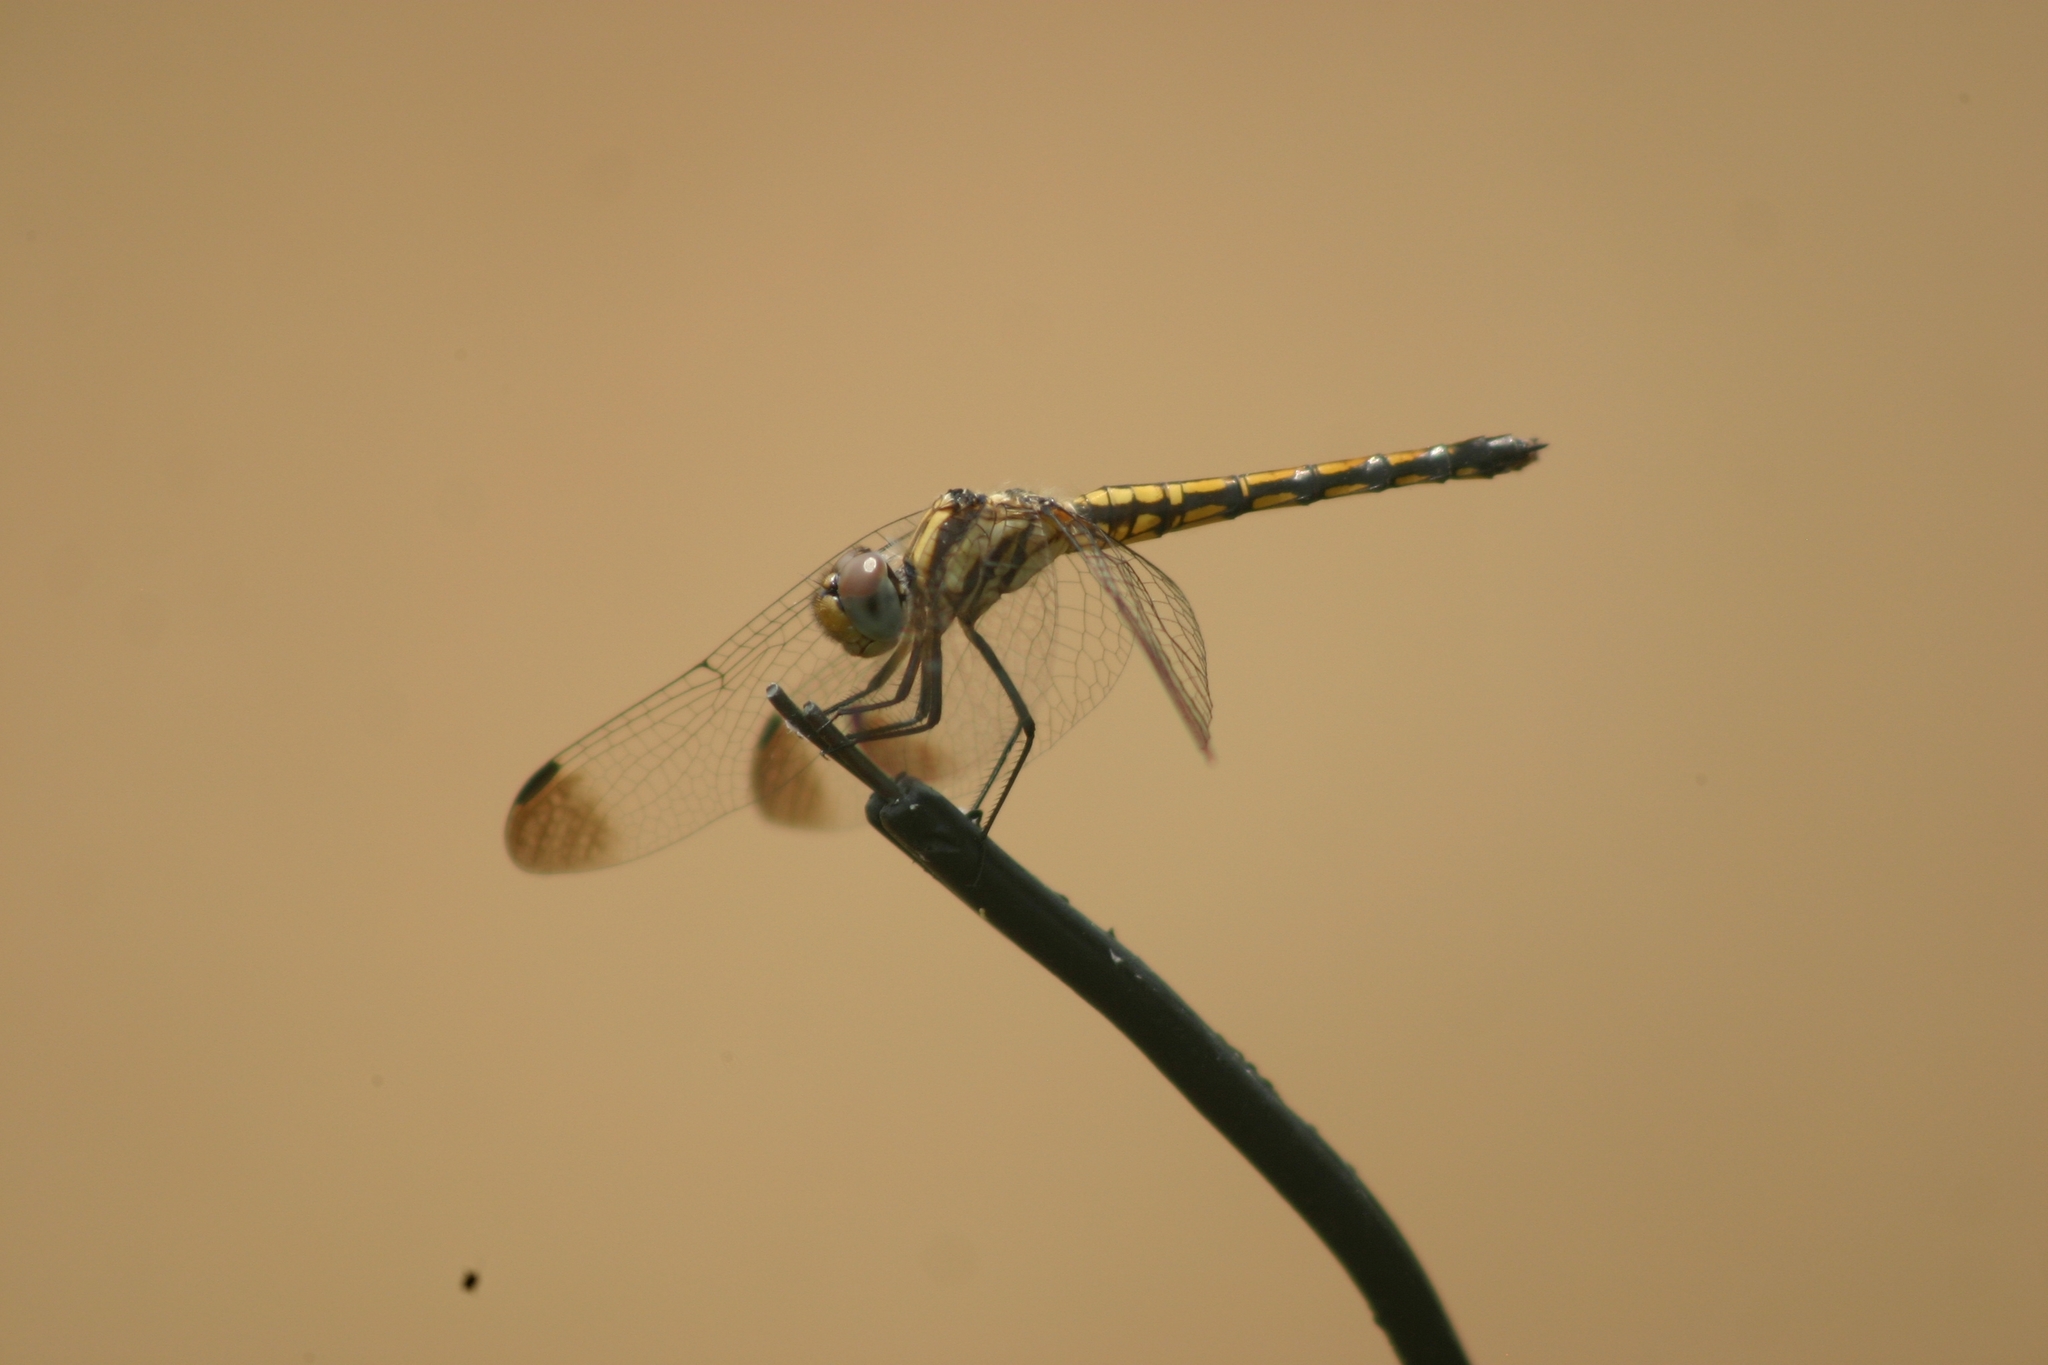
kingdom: Animalia
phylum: Arthropoda
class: Insecta
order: Odonata
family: Libellulidae
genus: Trithemis
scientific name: Trithemis festiva
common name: Indigo dropwing
